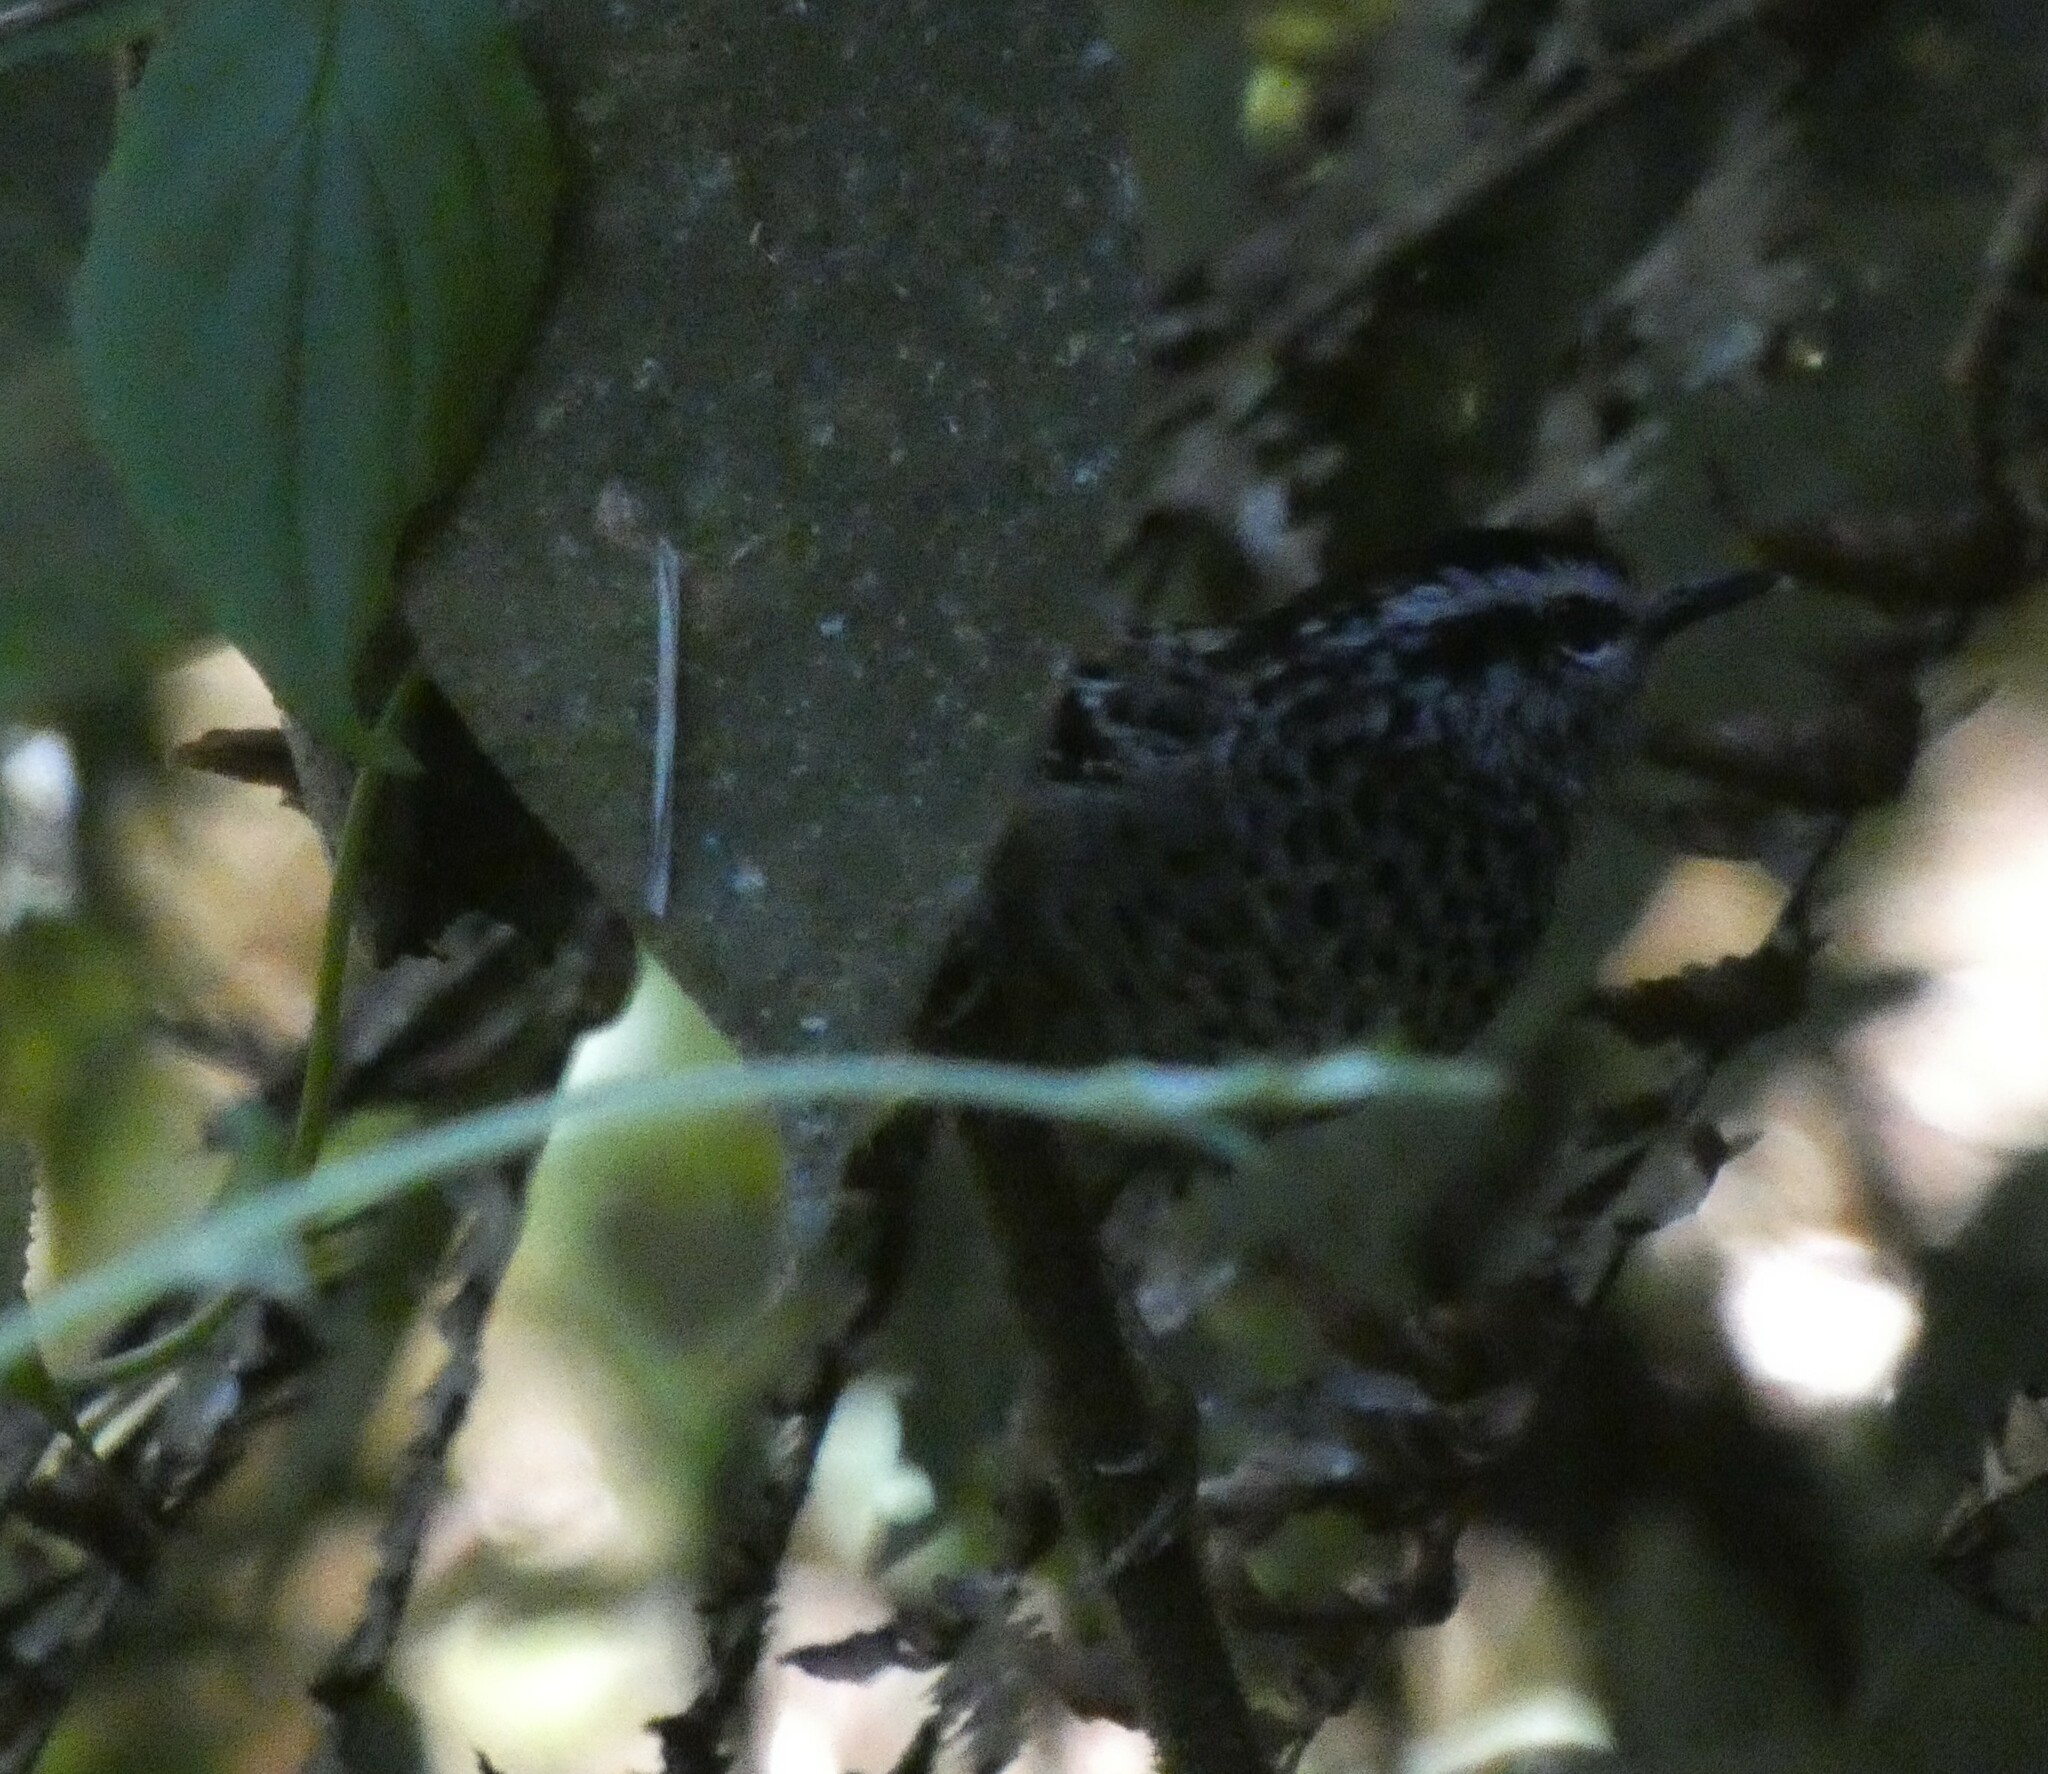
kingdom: Animalia
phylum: Chordata
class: Aves
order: Passeriformes
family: Thamnophilidae
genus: Drymophila
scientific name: Drymophila ochropyga
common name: Ochre-rumped antbird
